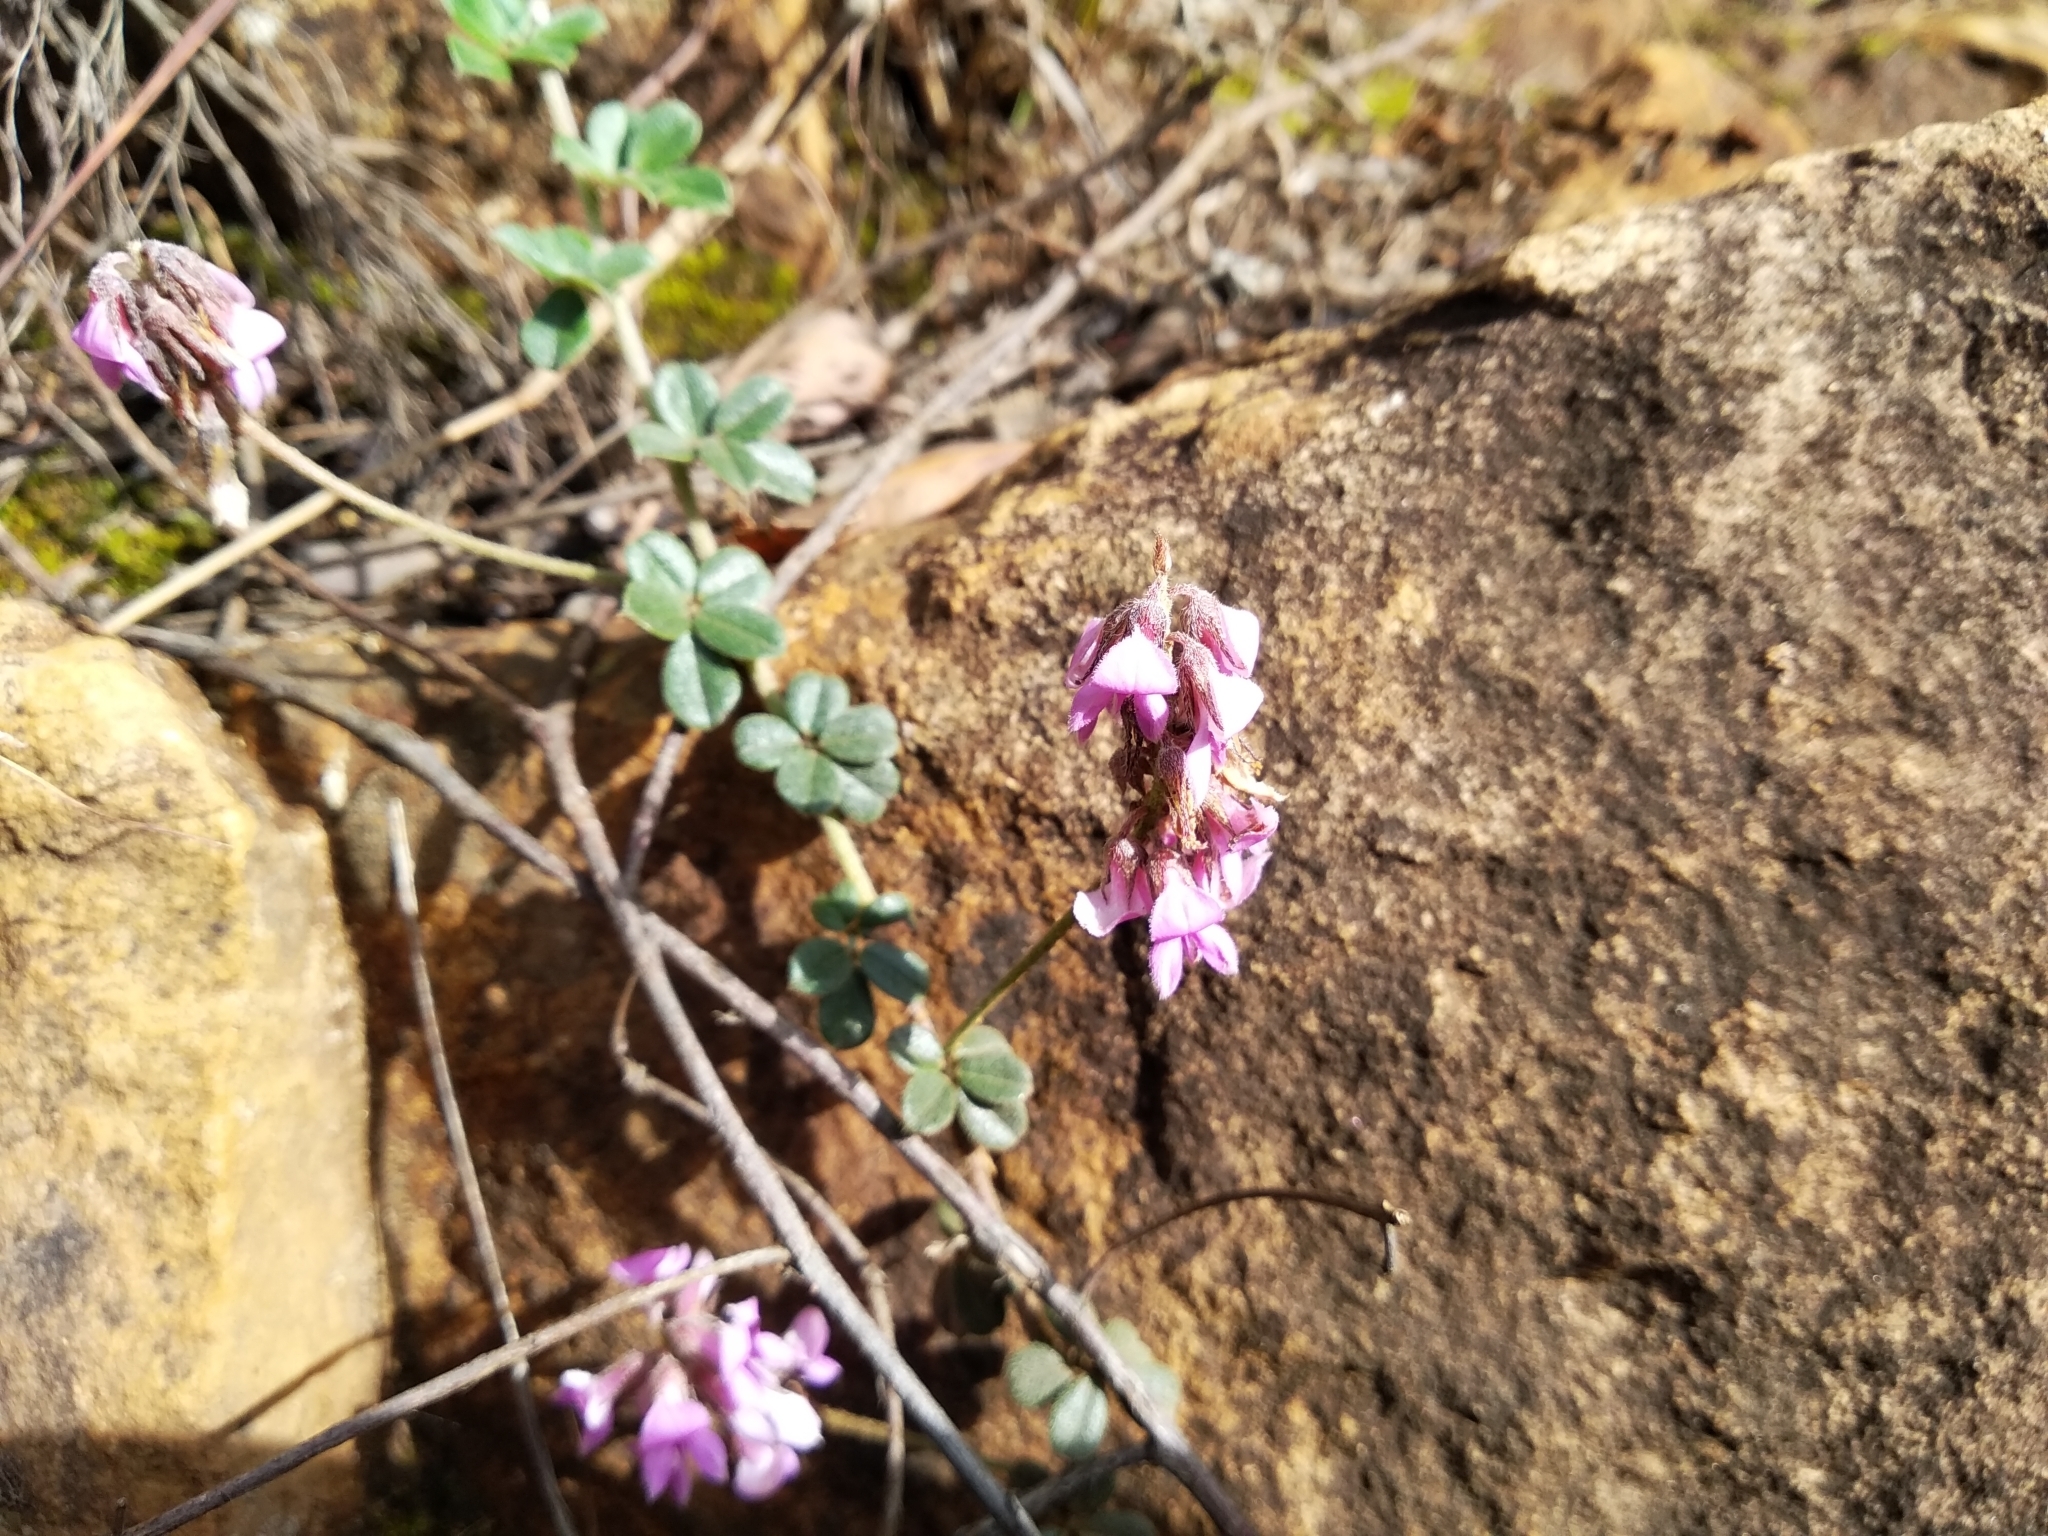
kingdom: Plantae
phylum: Tracheophyta
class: Magnoliopsida
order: Fabales
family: Fabaceae
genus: Indigofera
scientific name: Indigofera mauritanica
